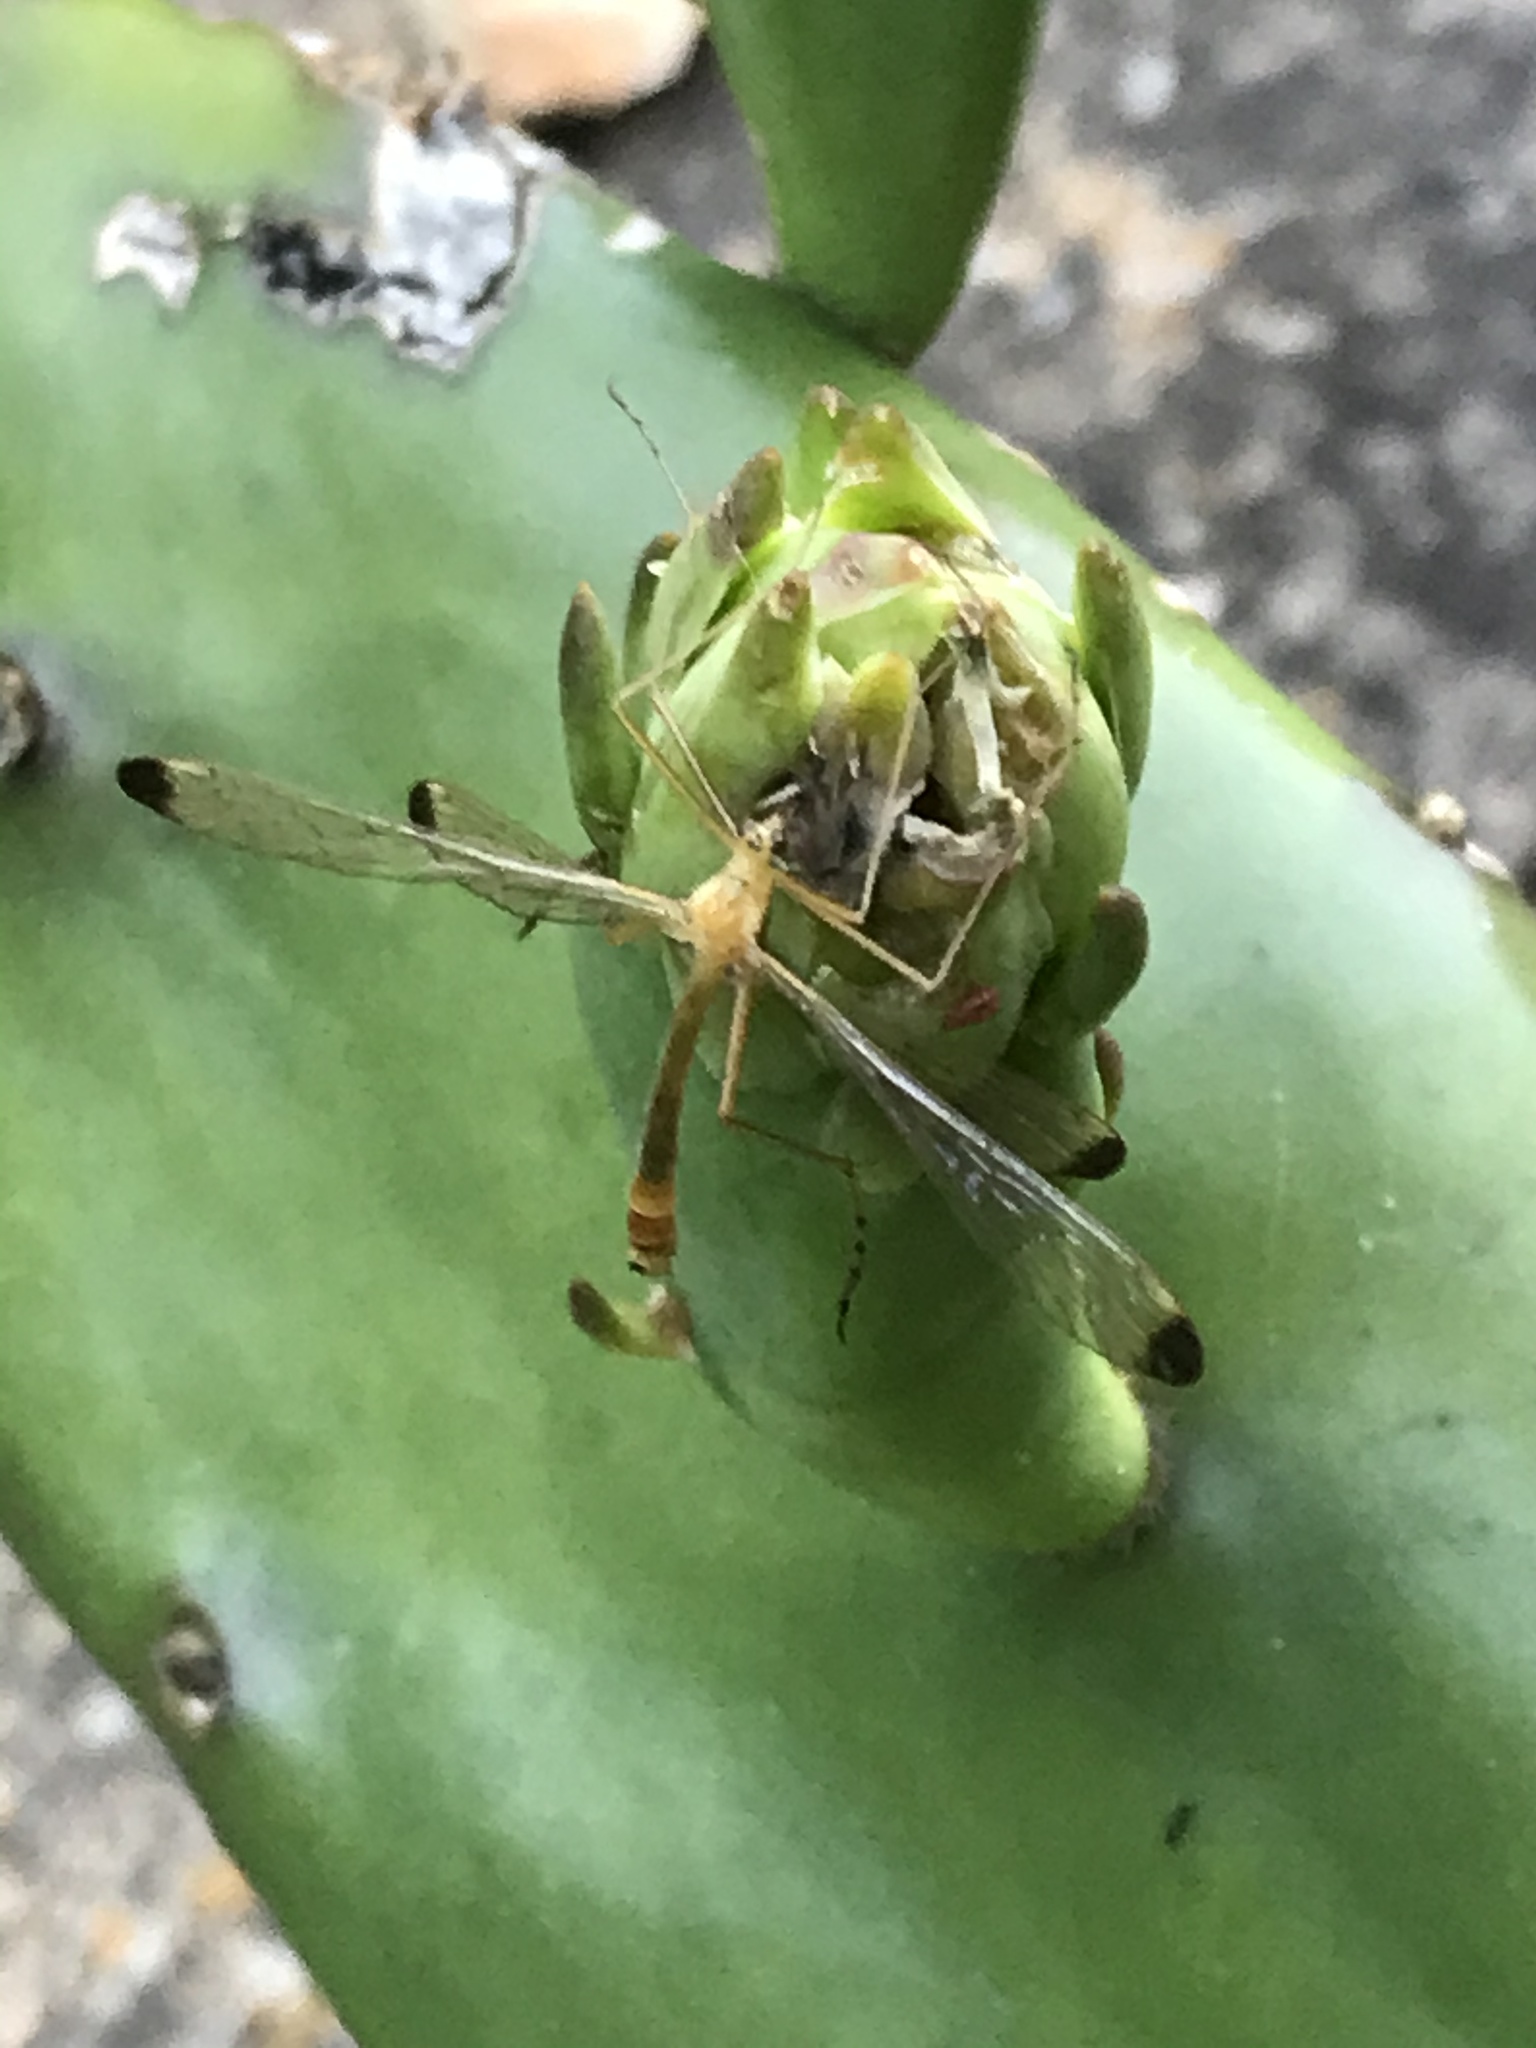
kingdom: Animalia
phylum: Arthropoda
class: Insecta
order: Mecoptera
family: Bittacidae
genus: Hylobittacus
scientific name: Hylobittacus apicalis
